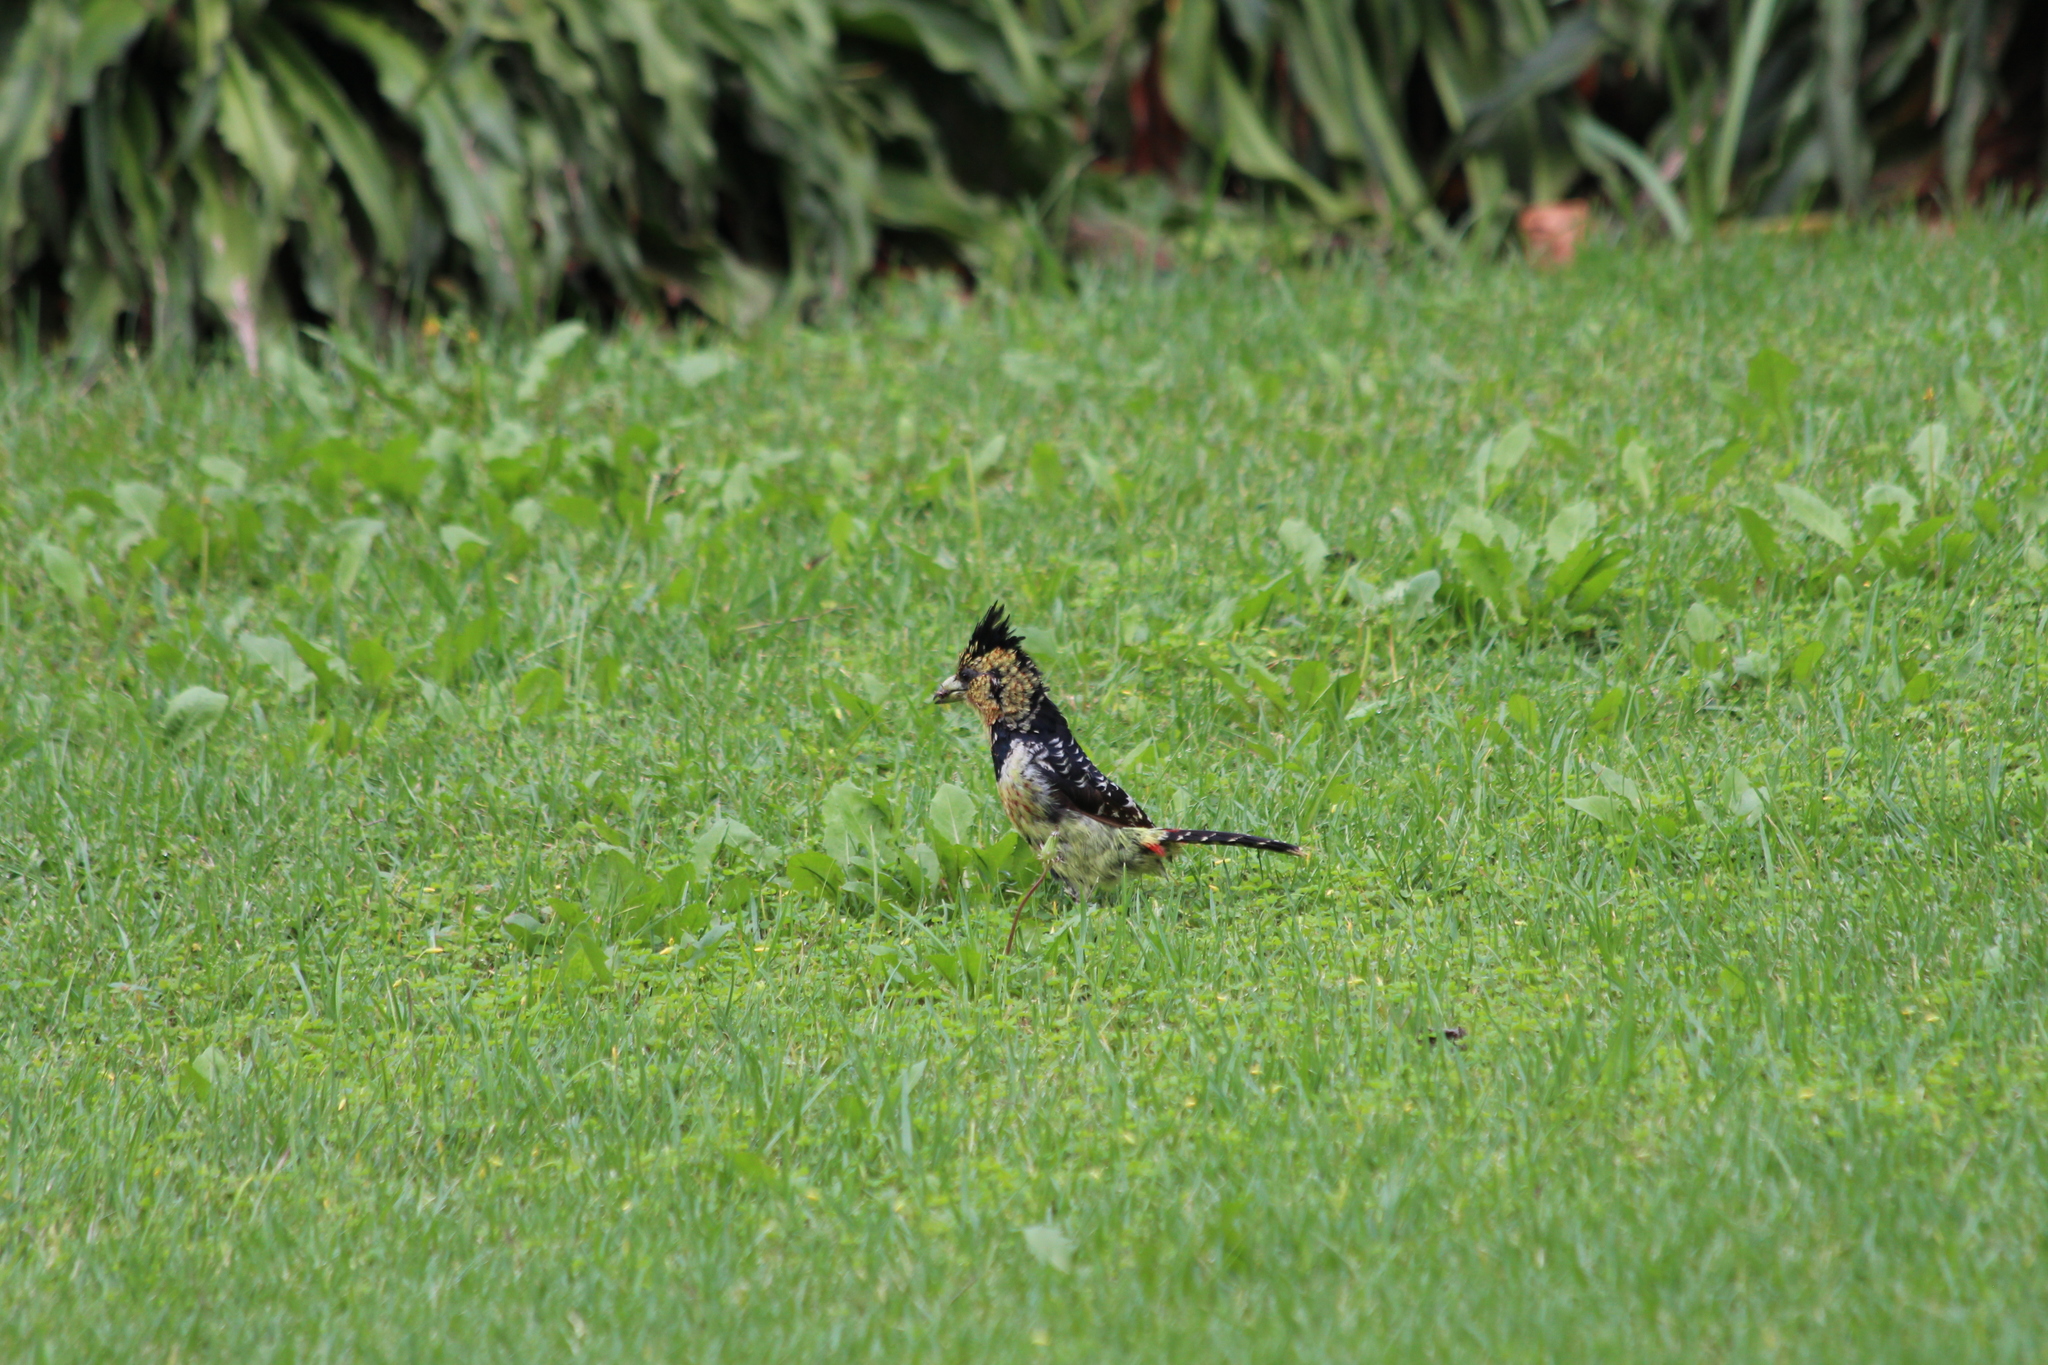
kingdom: Animalia
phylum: Chordata
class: Aves
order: Piciformes
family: Lybiidae
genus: Trachyphonus
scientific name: Trachyphonus vaillantii
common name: Crested barbet
